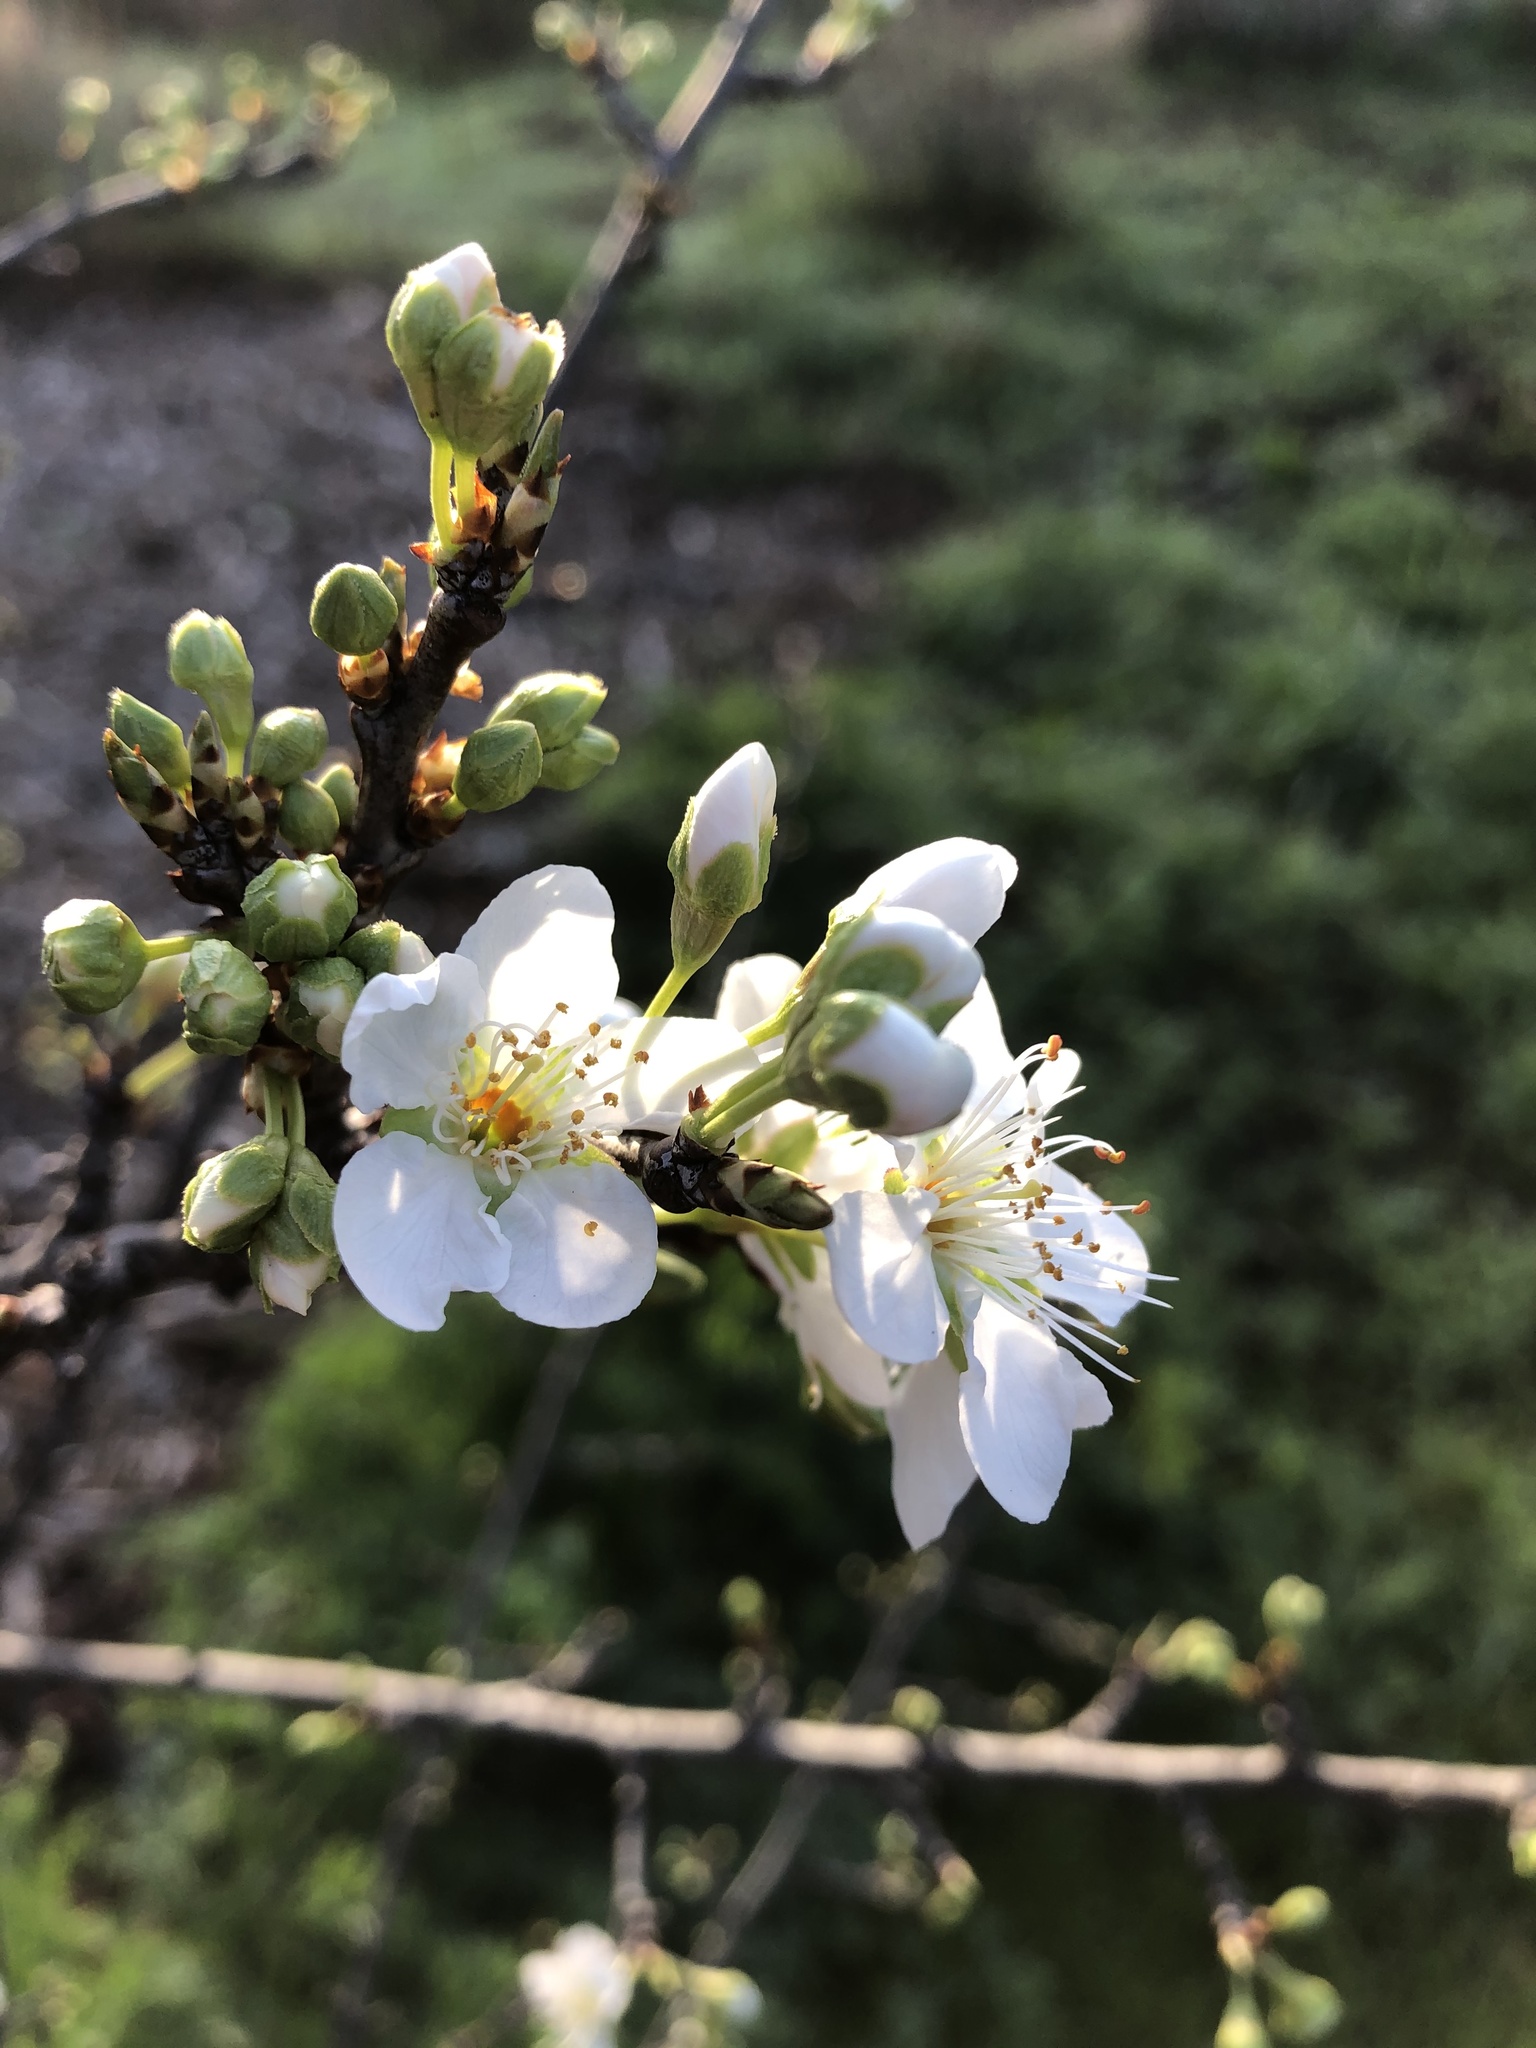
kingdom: Plantae
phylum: Tracheophyta
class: Magnoliopsida
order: Brassicales
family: Brassicaceae
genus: Cardamine
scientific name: Cardamine californica
